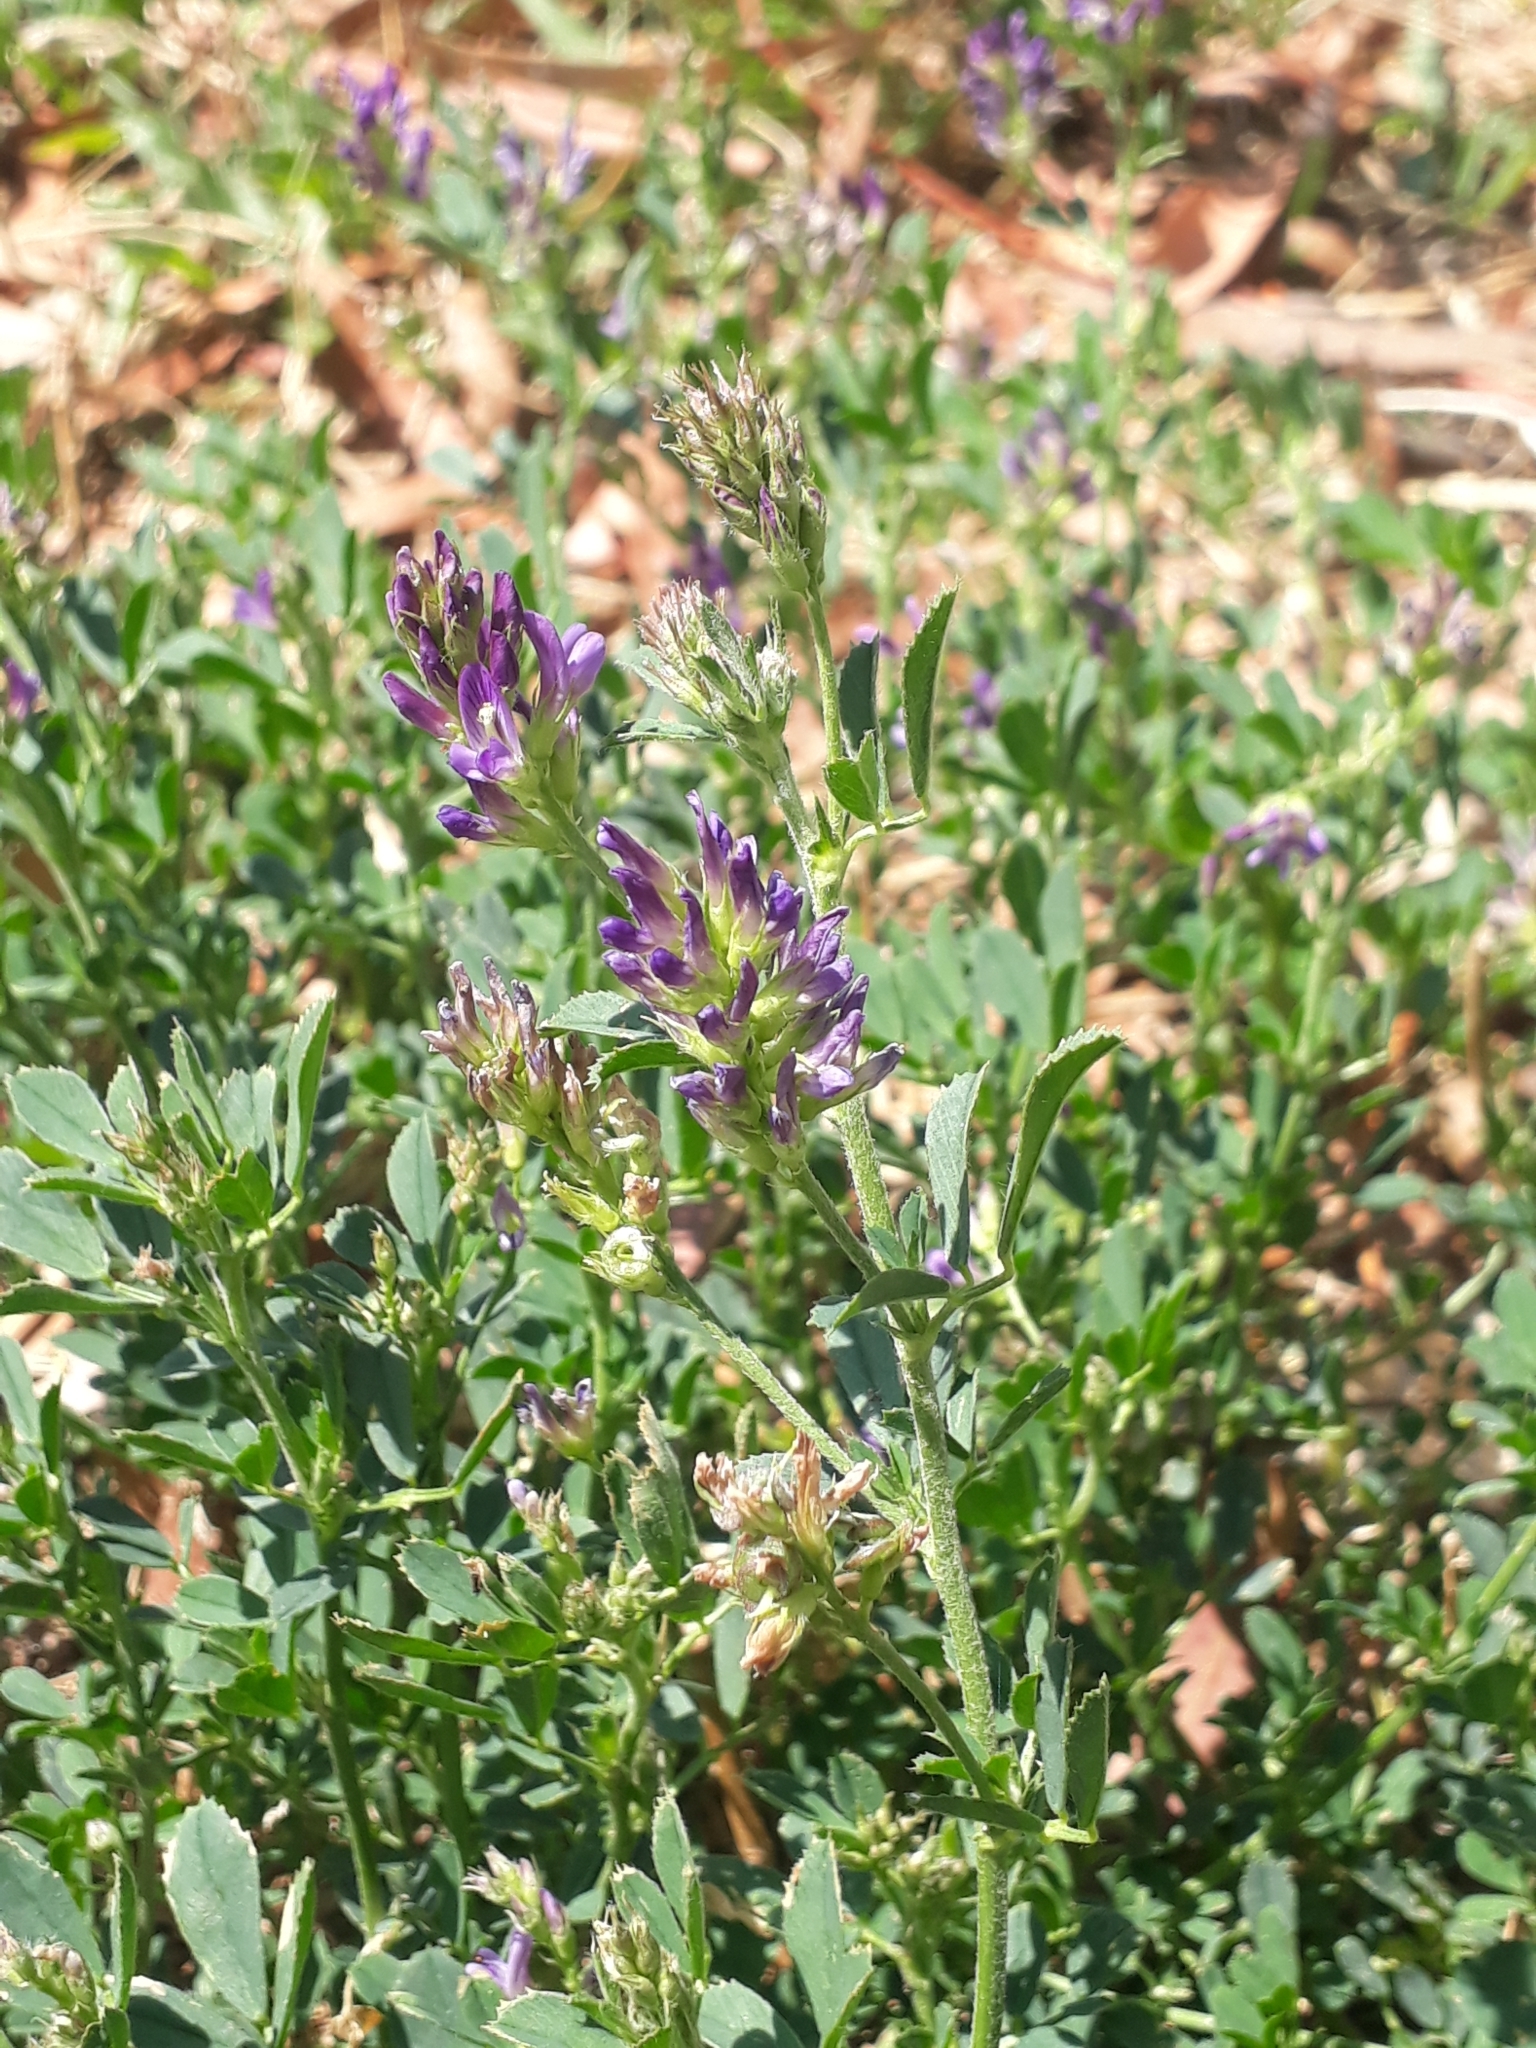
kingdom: Plantae
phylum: Tracheophyta
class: Magnoliopsida
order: Fabales
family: Fabaceae
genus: Medicago
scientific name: Medicago sativa
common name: Alfalfa
